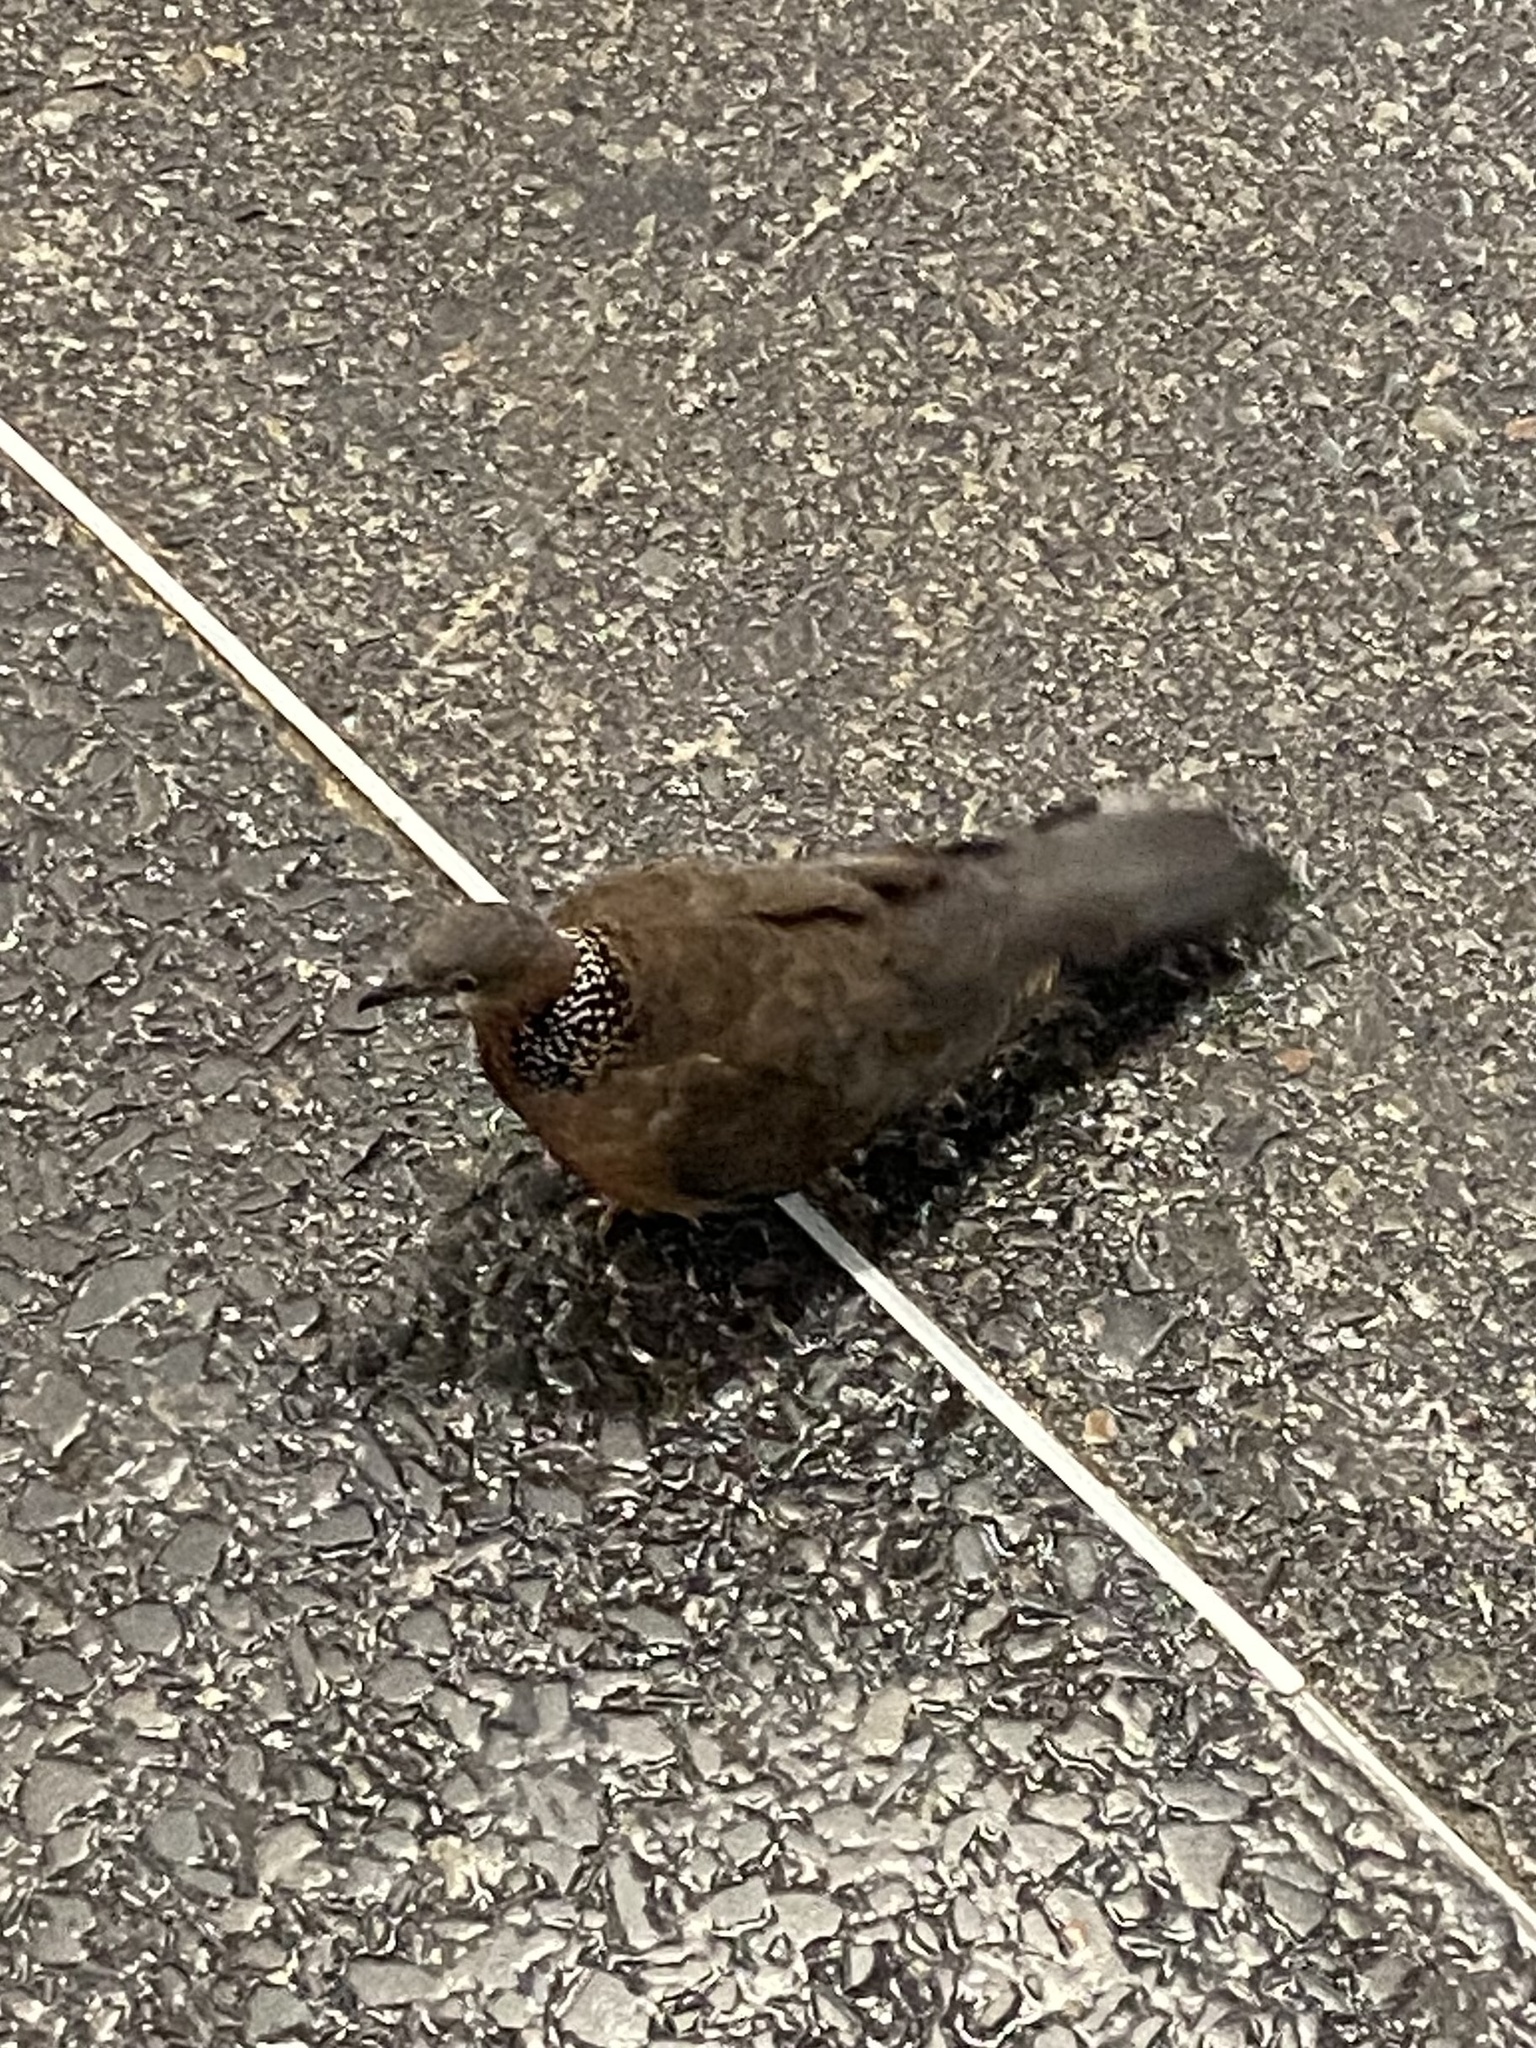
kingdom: Animalia
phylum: Chordata
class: Aves
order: Columbiformes
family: Columbidae
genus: Spilopelia
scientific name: Spilopelia chinensis
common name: Spotted dove
